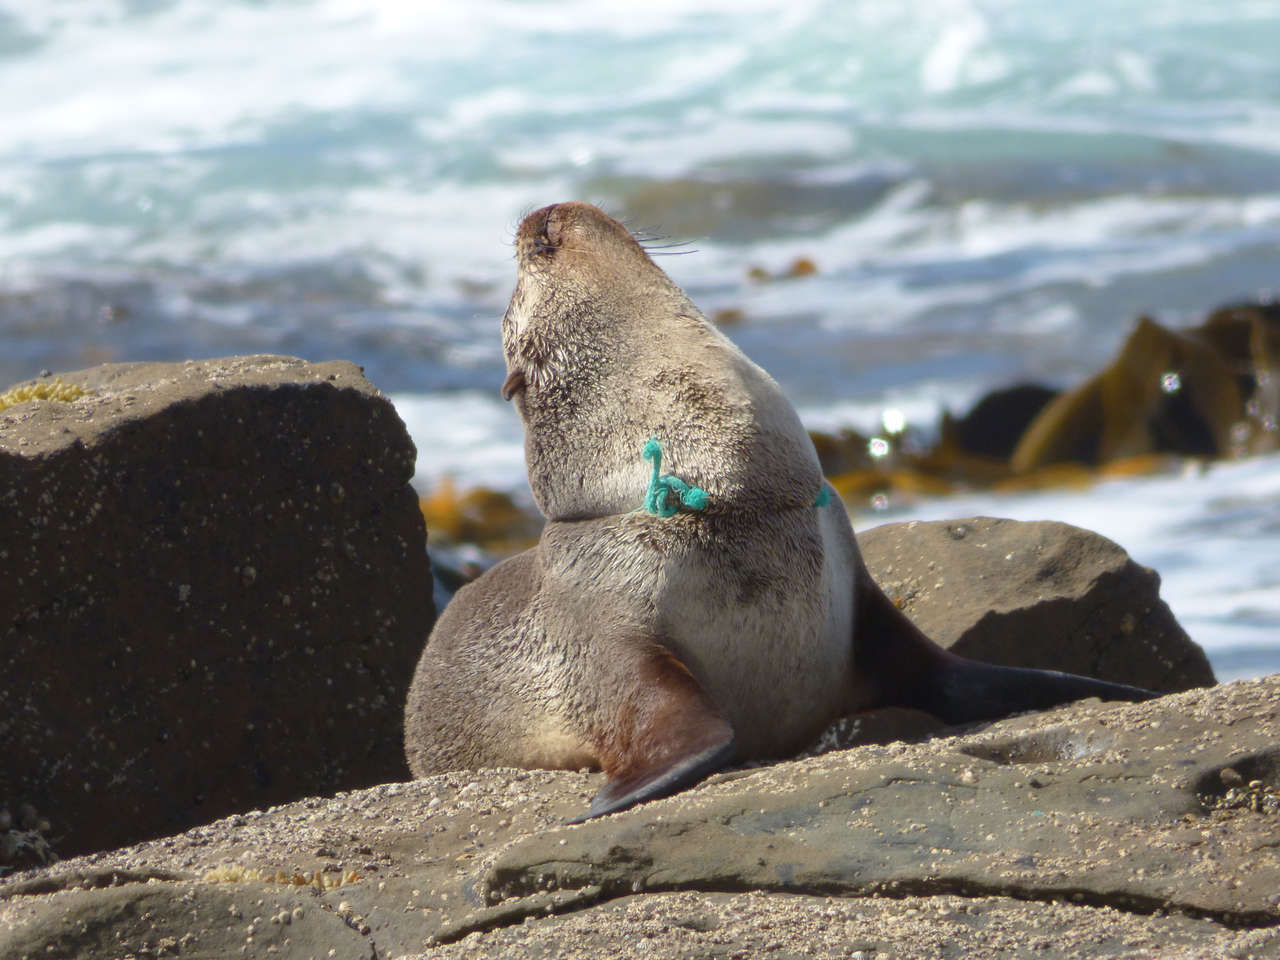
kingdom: Animalia
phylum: Chordata
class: Mammalia
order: Carnivora
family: Otariidae
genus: Arctocephalus
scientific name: Arctocephalus pusillus
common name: Brown fur seal
